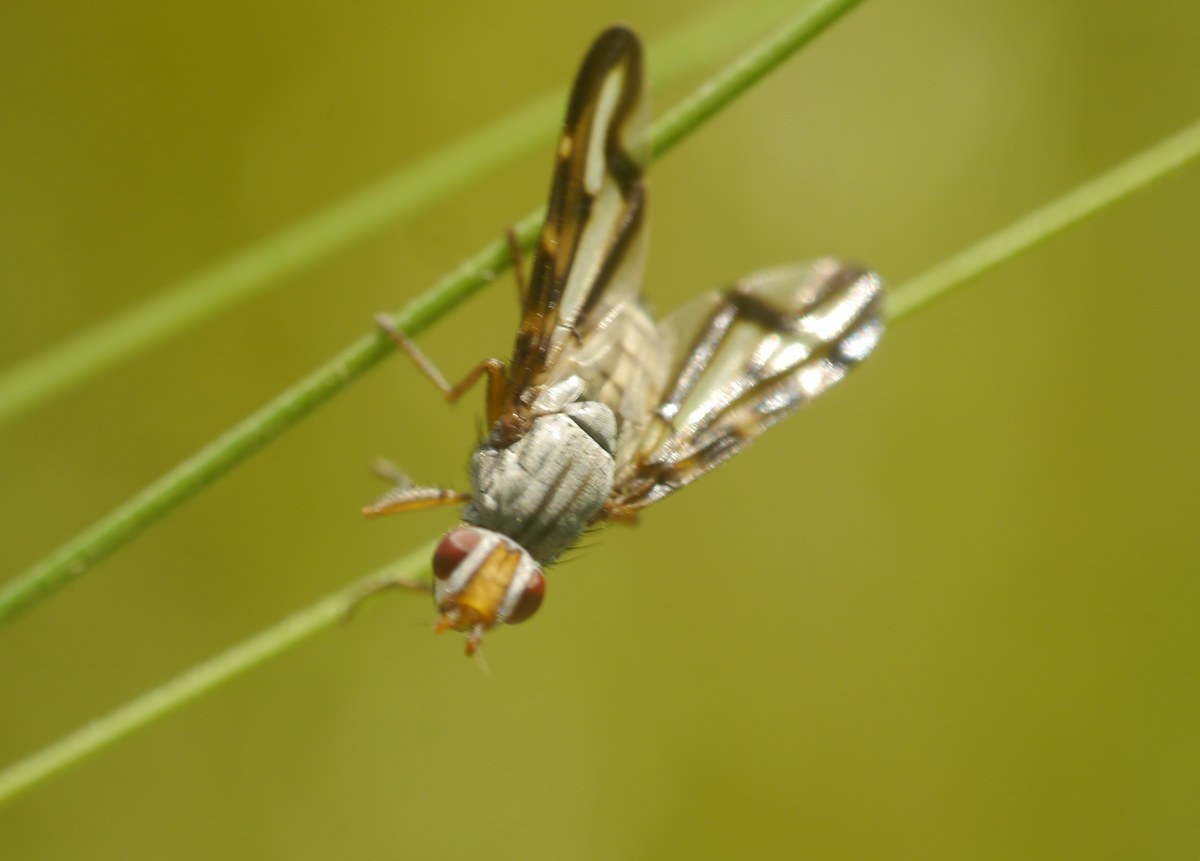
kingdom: Animalia
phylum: Arthropoda
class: Insecta
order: Diptera
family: Ulidiidae
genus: Otites
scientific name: Otites lamed
